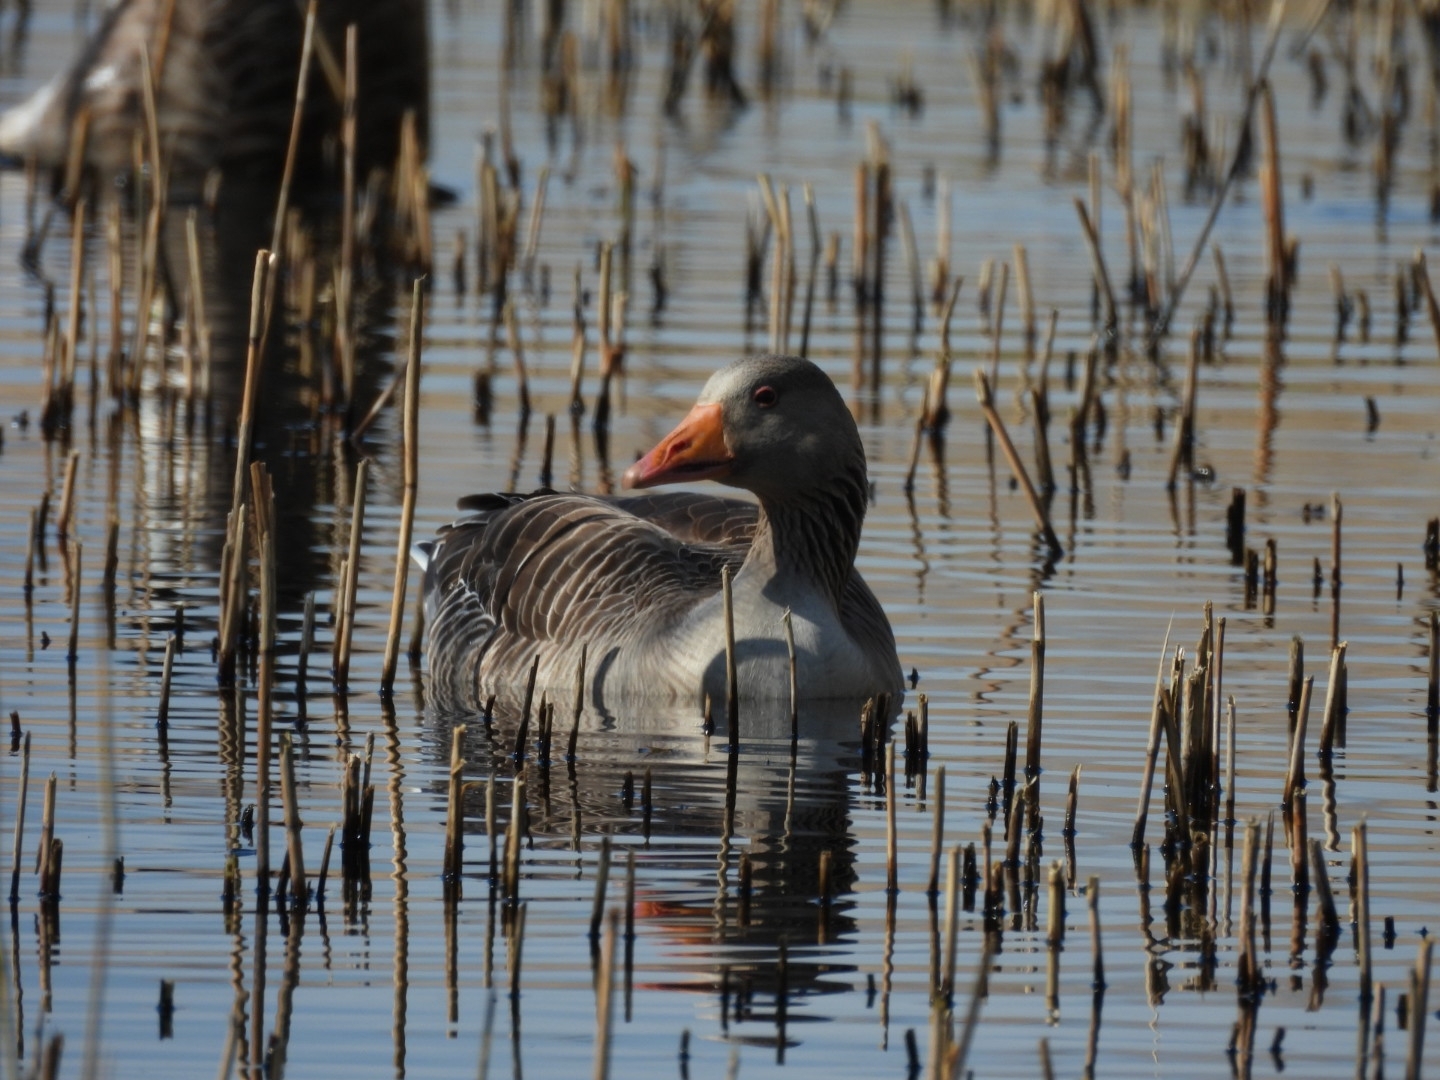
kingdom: Animalia
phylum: Chordata
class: Aves
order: Anseriformes
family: Anatidae
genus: Anser
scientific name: Anser anser
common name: Greylag goose
